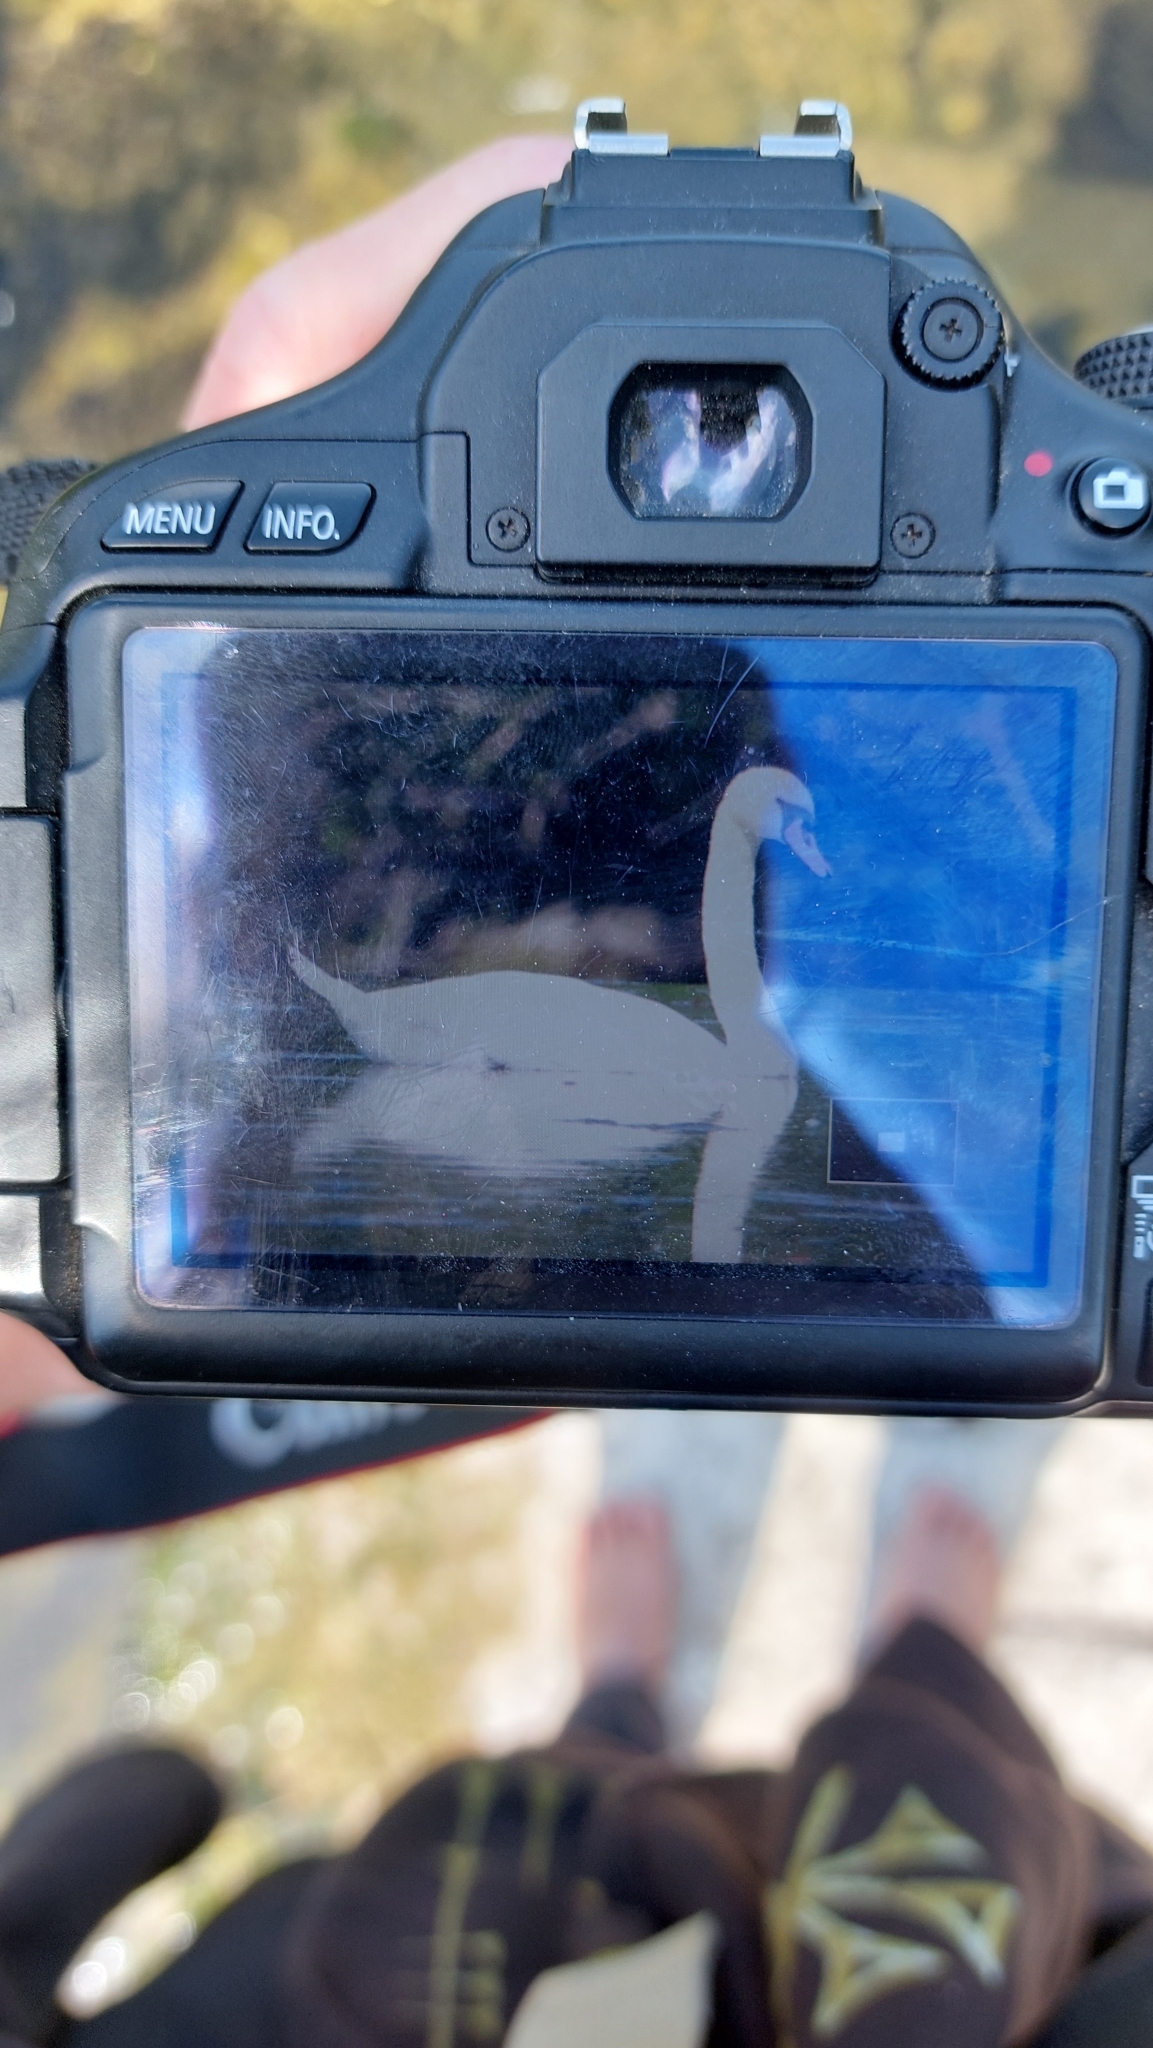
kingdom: Animalia
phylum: Chordata
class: Aves
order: Anseriformes
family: Anatidae
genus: Cygnus
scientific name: Cygnus olor
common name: Mute swan
